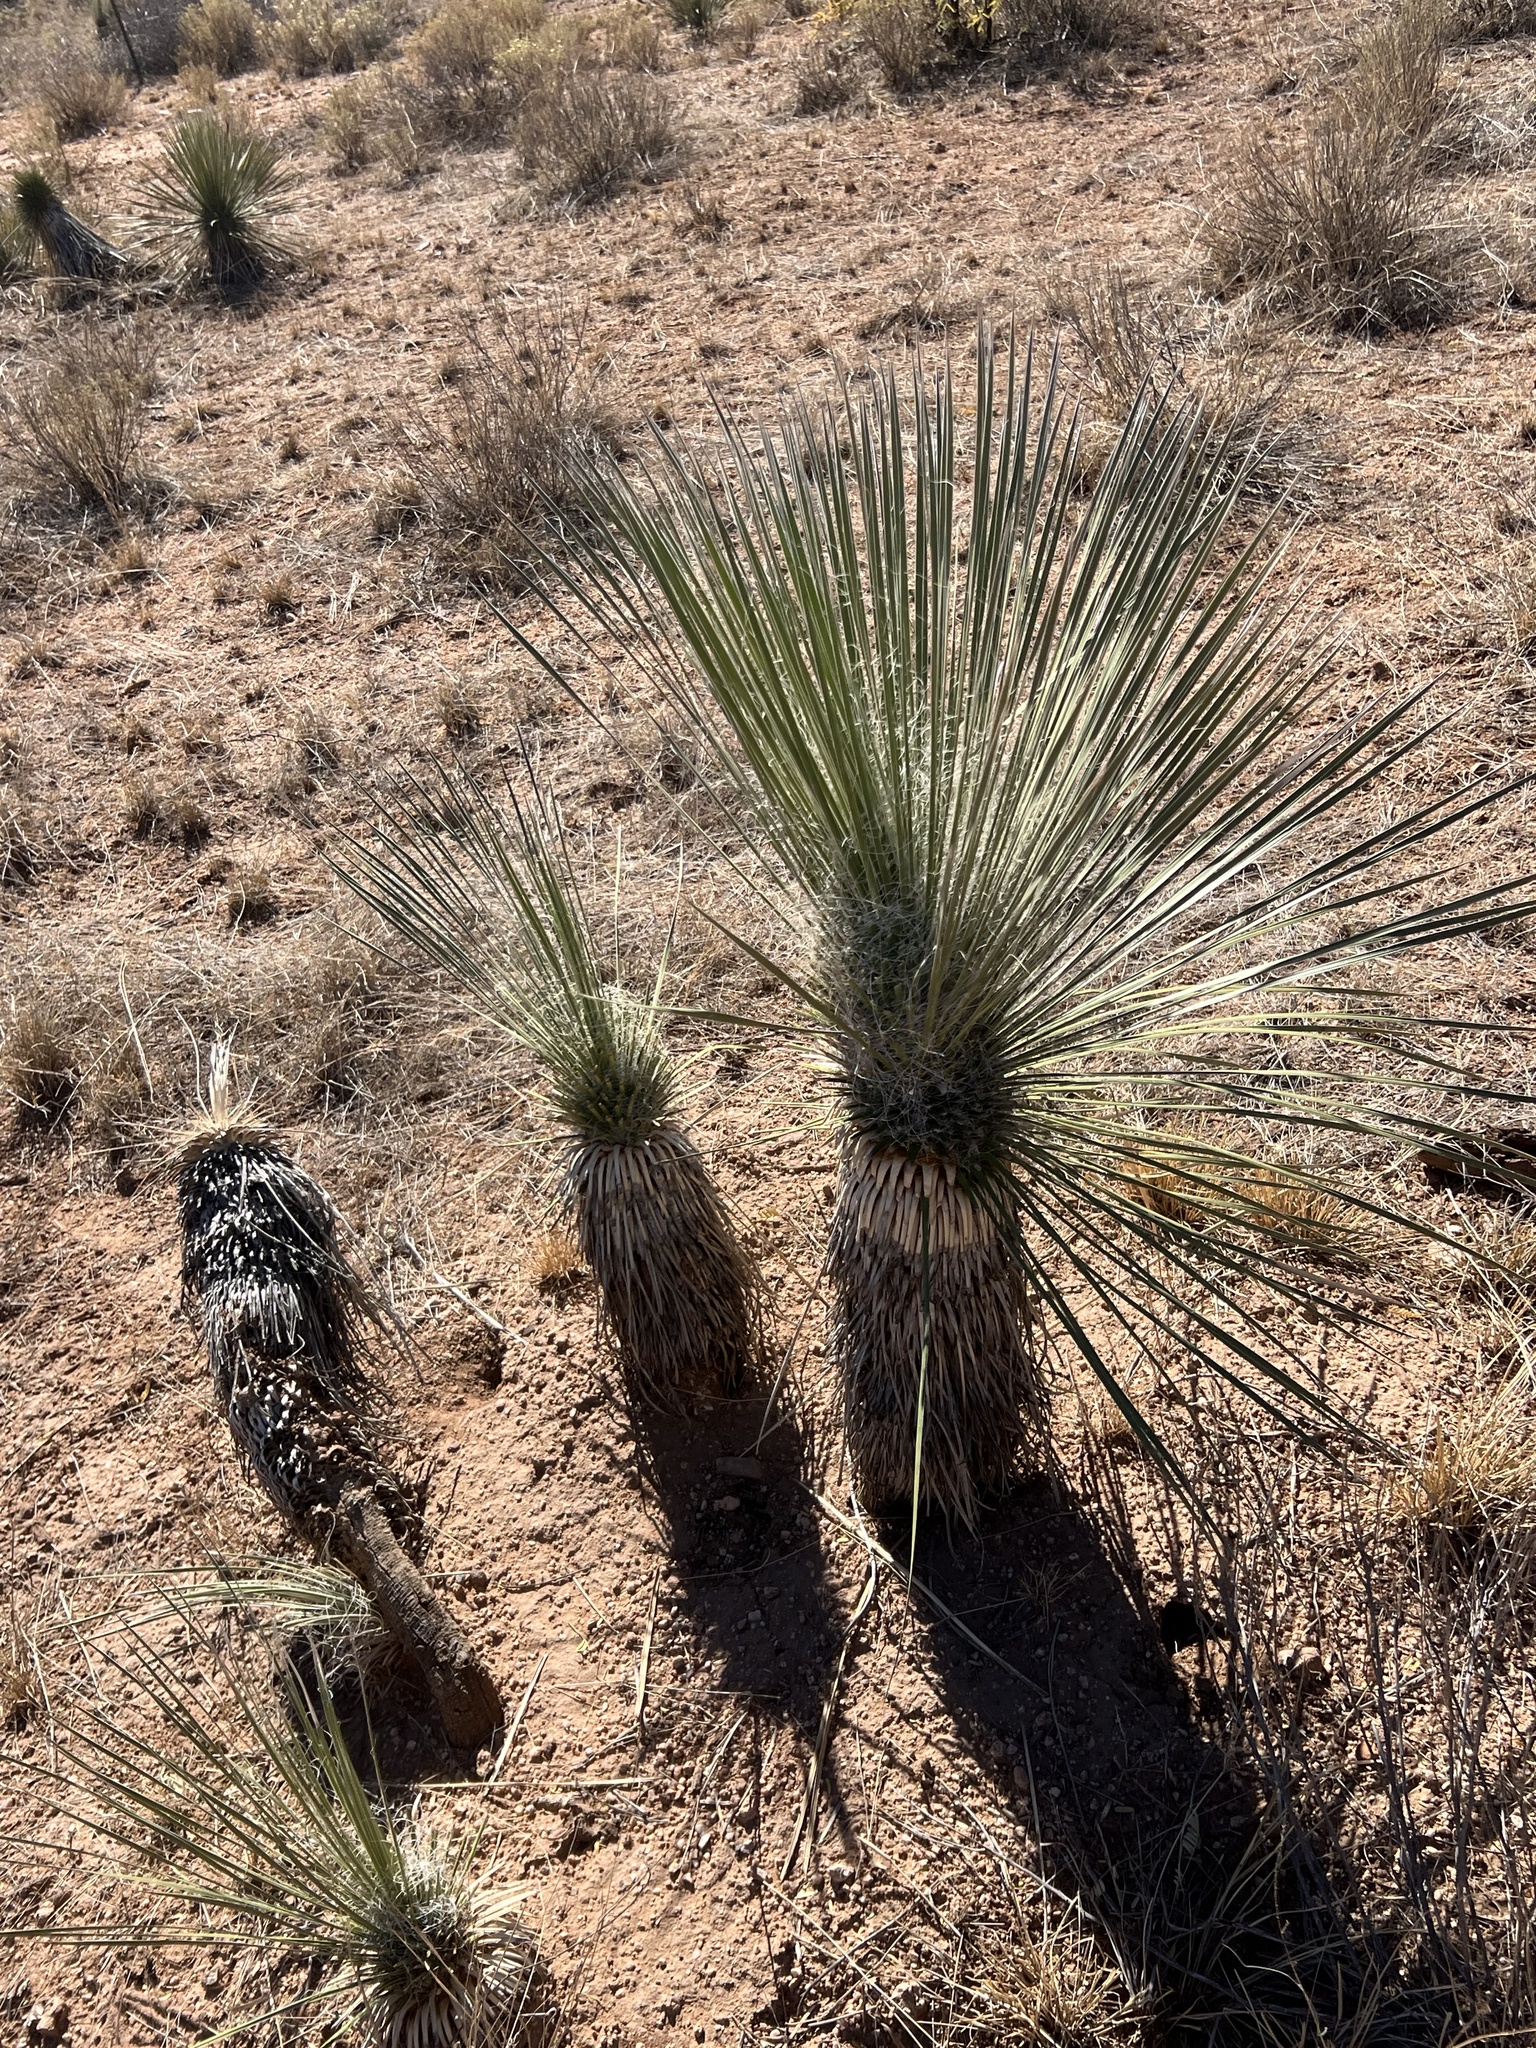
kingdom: Plantae
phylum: Tracheophyta
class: Liliopsida
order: Asparagales
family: Asparagaceae
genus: Yucca
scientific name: Yucca elata
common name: Palmella
